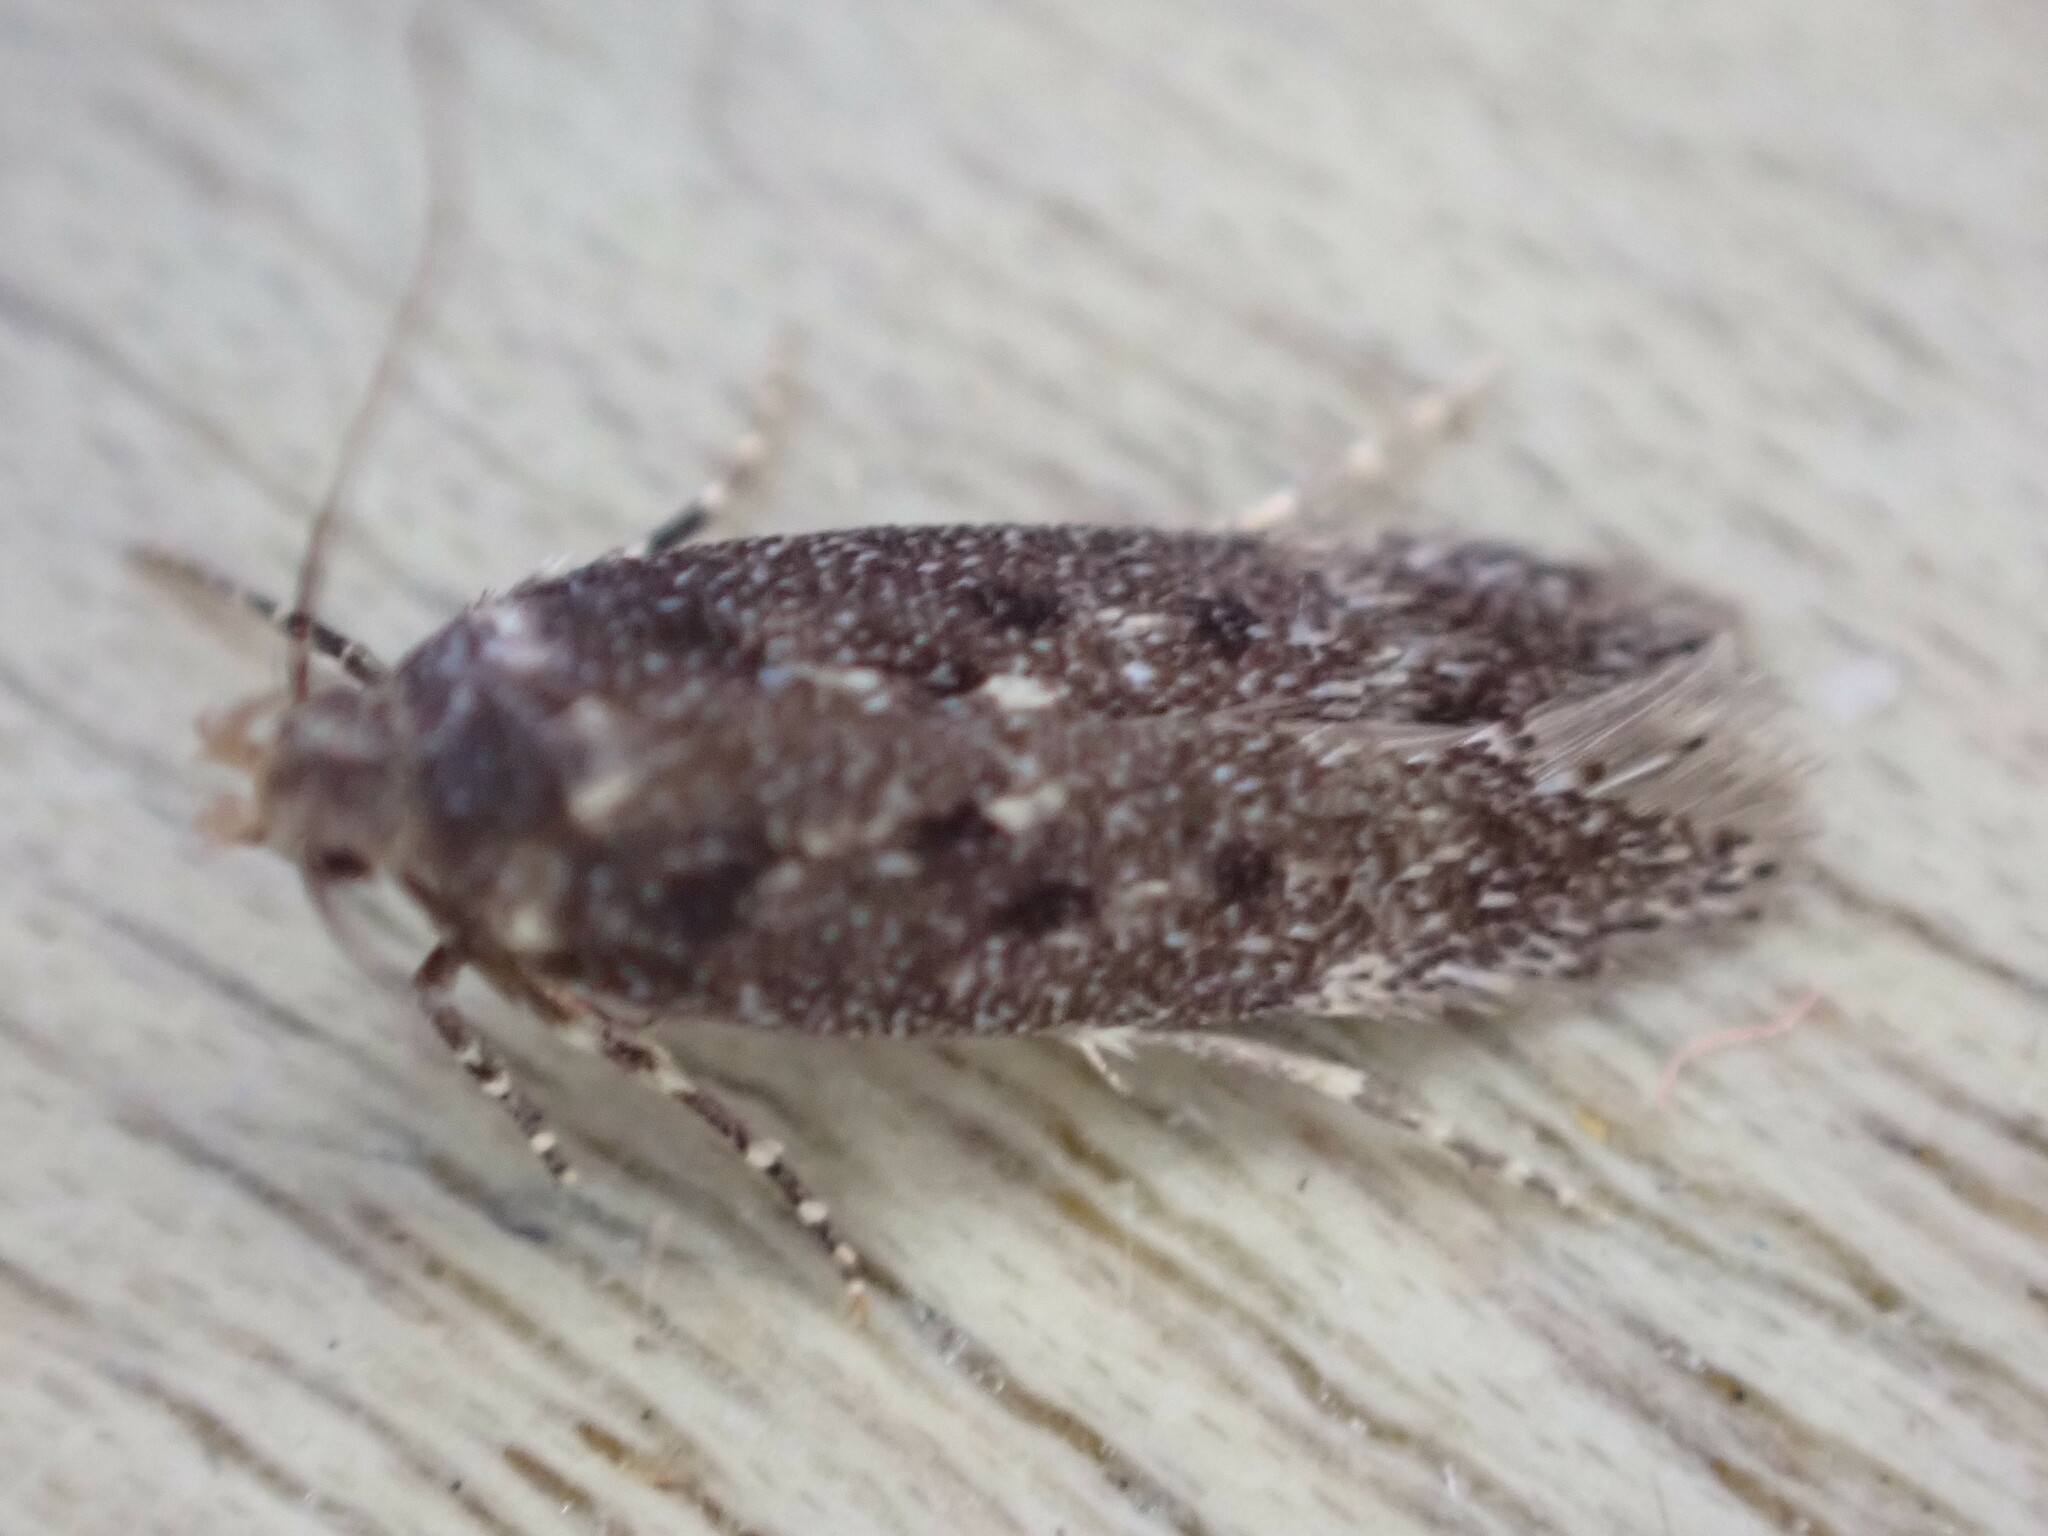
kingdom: Animalia
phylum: Arthropoda
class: Insecta
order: Lepidoptera
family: Gelechiidae
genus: Bryotropha
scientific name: Bryotropha affinis
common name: Dark groundling
